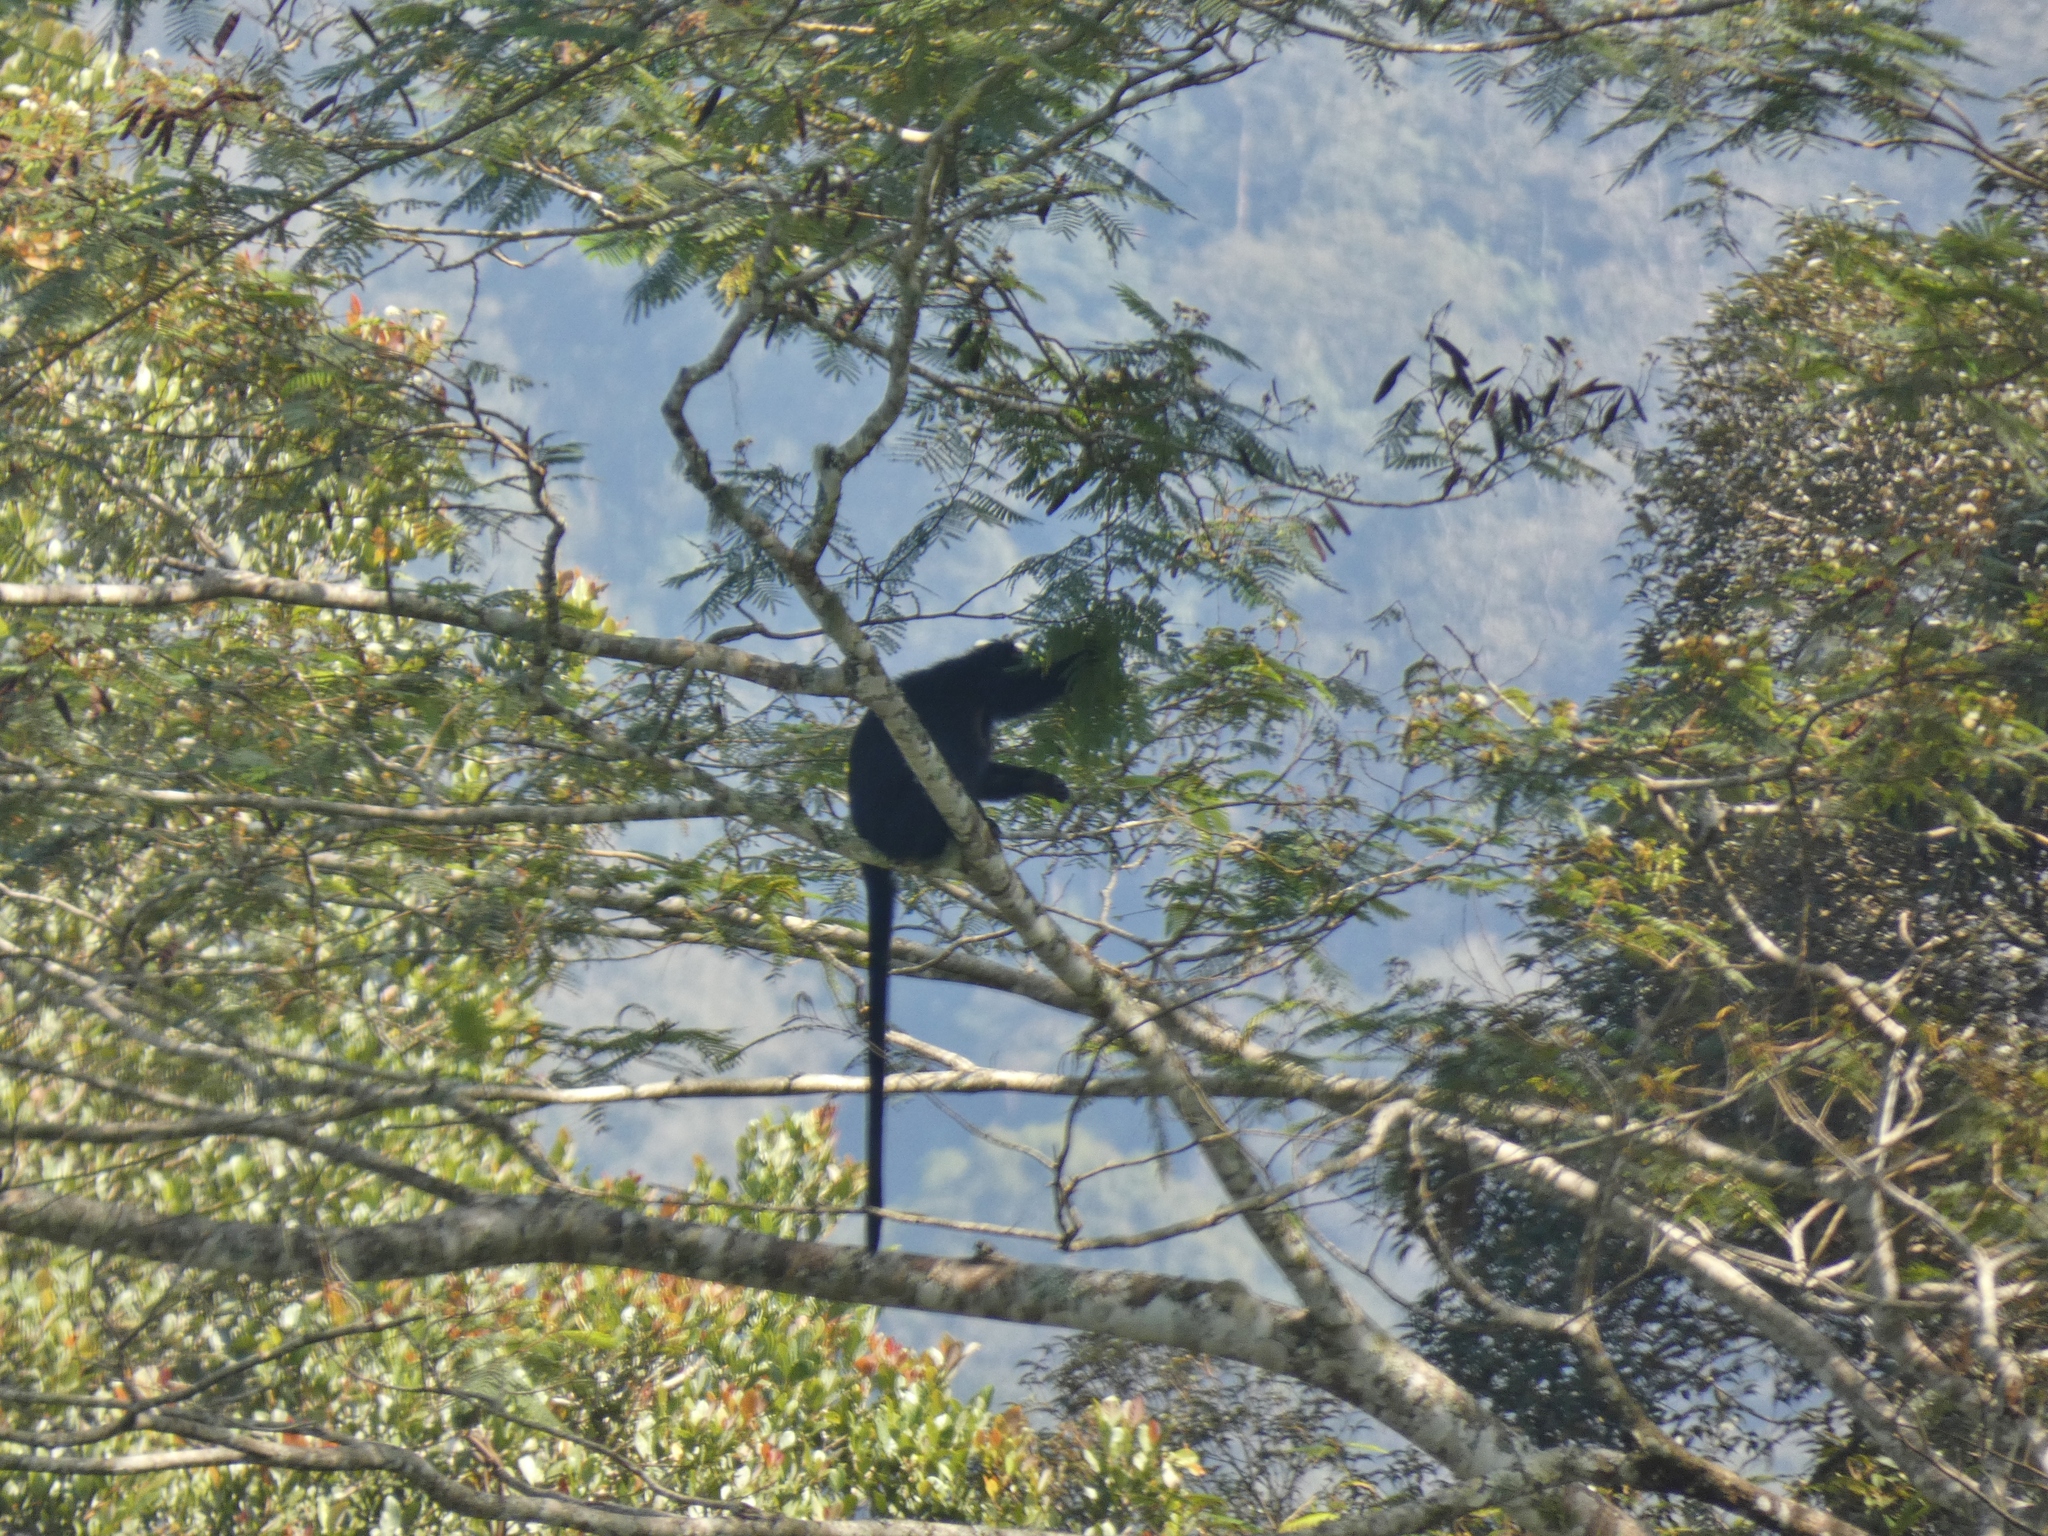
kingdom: Animalia
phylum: Chordata
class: Mammalia
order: Primates
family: Cercopithecidae
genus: Trachypithecus
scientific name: Trachypithecus mauritius
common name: West javan langur
